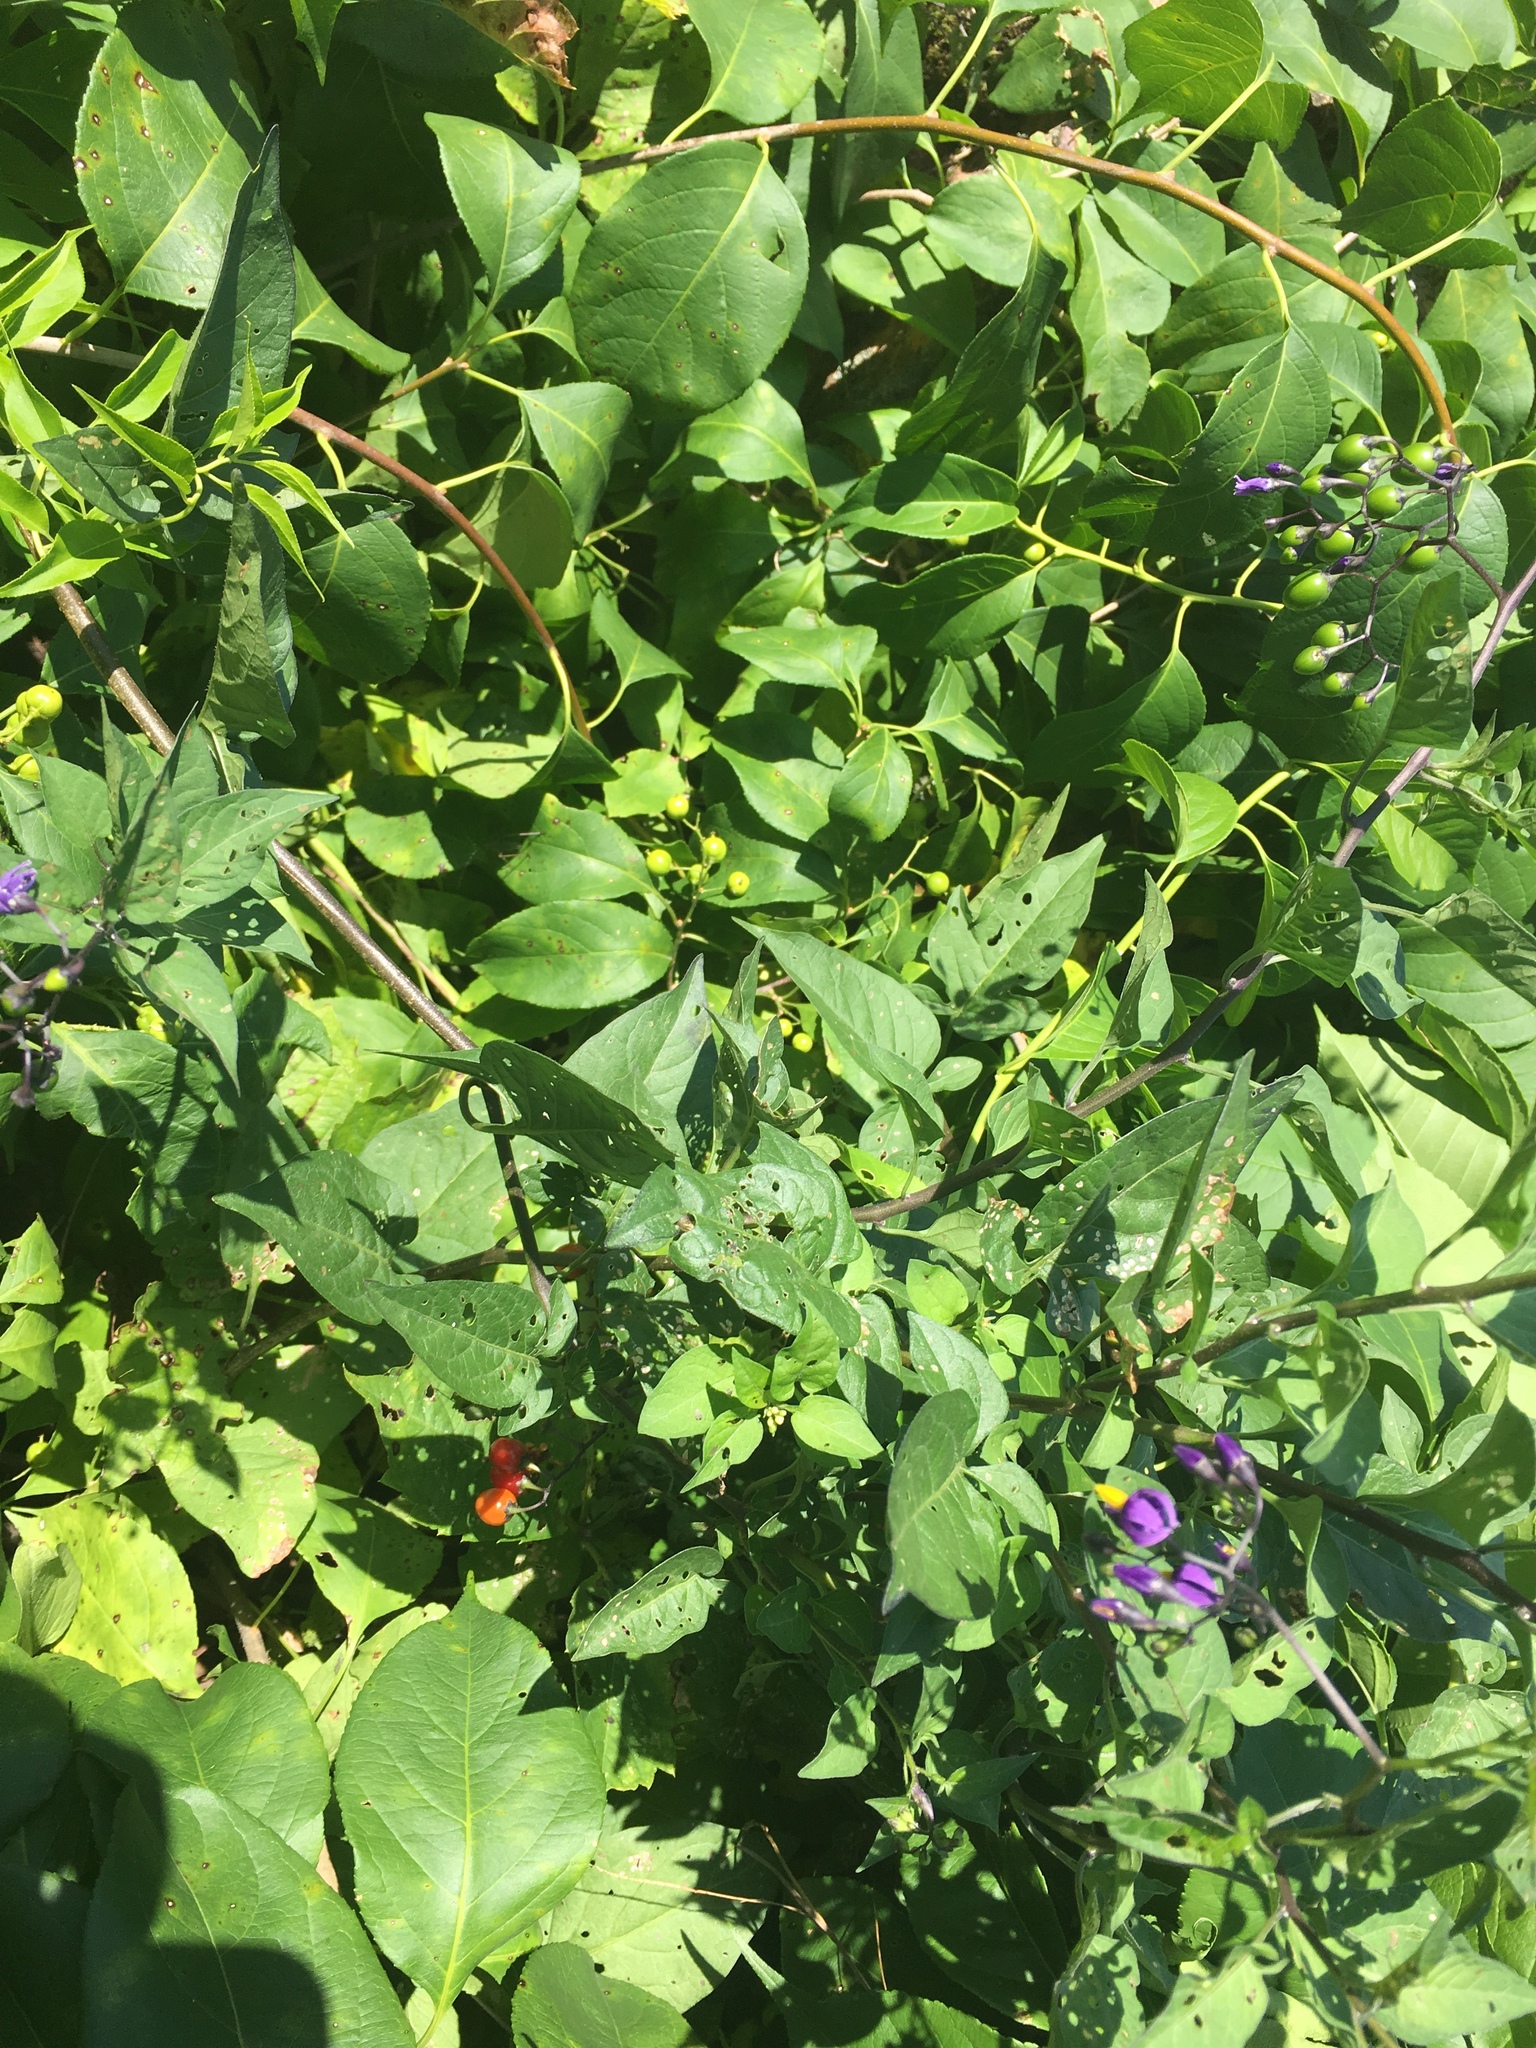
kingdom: Plantae
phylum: Tracheophyta
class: Magnoliopsida
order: Solanales
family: Solanaceae
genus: Solanum
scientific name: Solanum dulcamara
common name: Climbing nightshade
